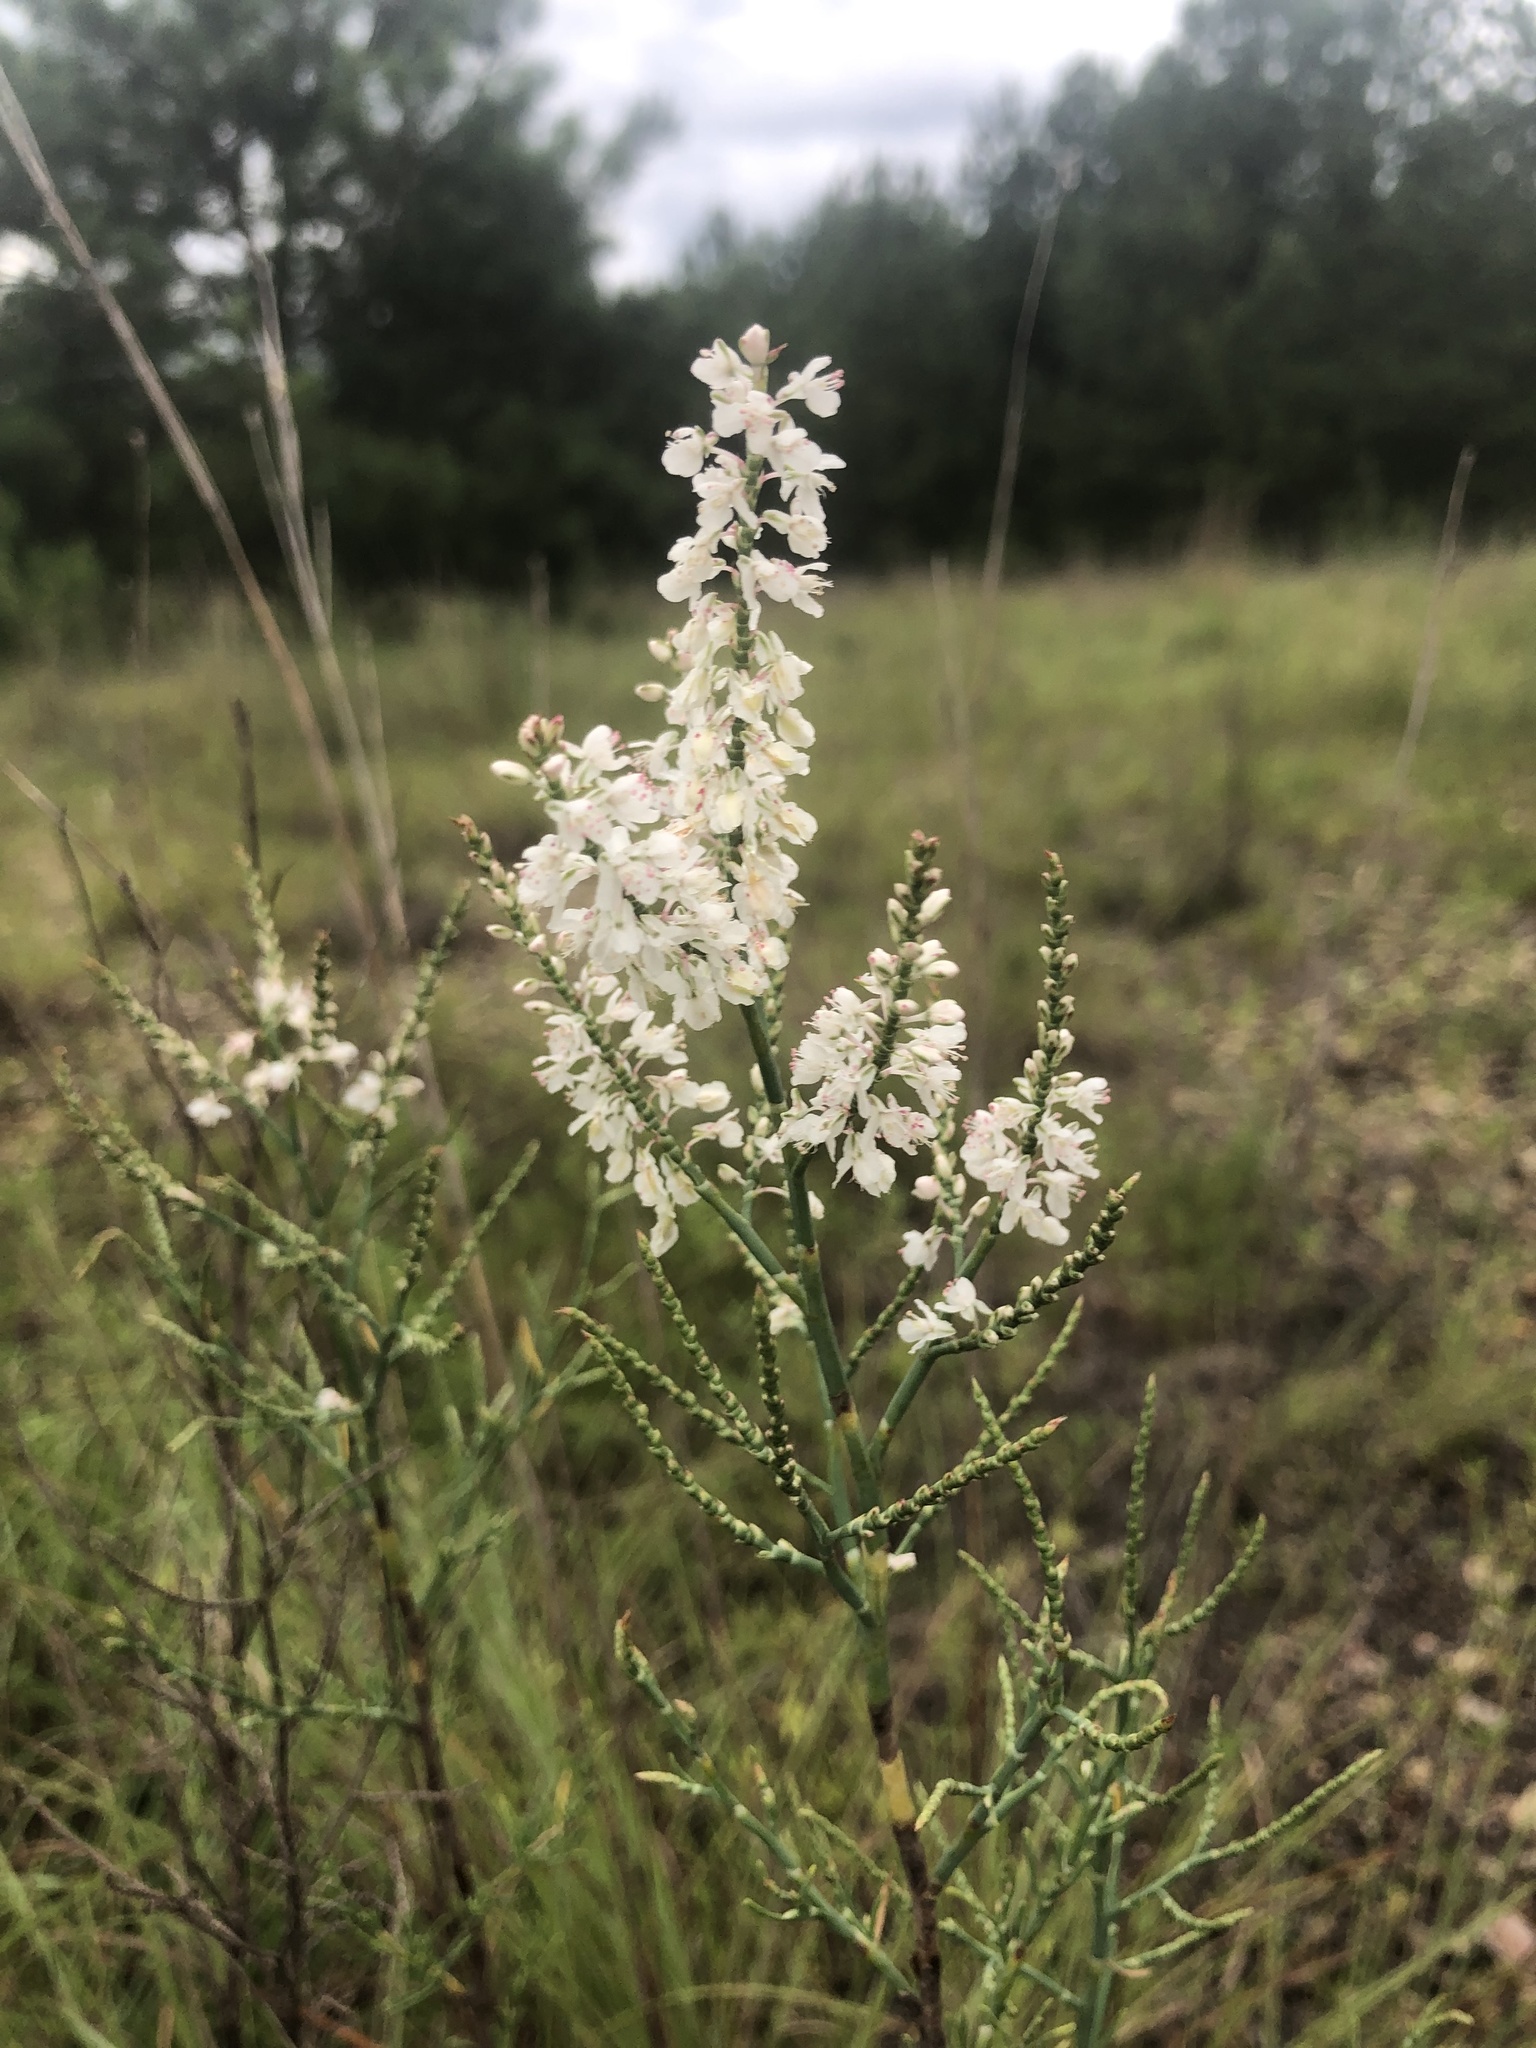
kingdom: Plantae
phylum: Tracheophyta
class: Magnoliopsida
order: Caryophyllales
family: Polygonaceae
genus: Polygonella
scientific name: Polygonella americana
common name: Southern jointweed
